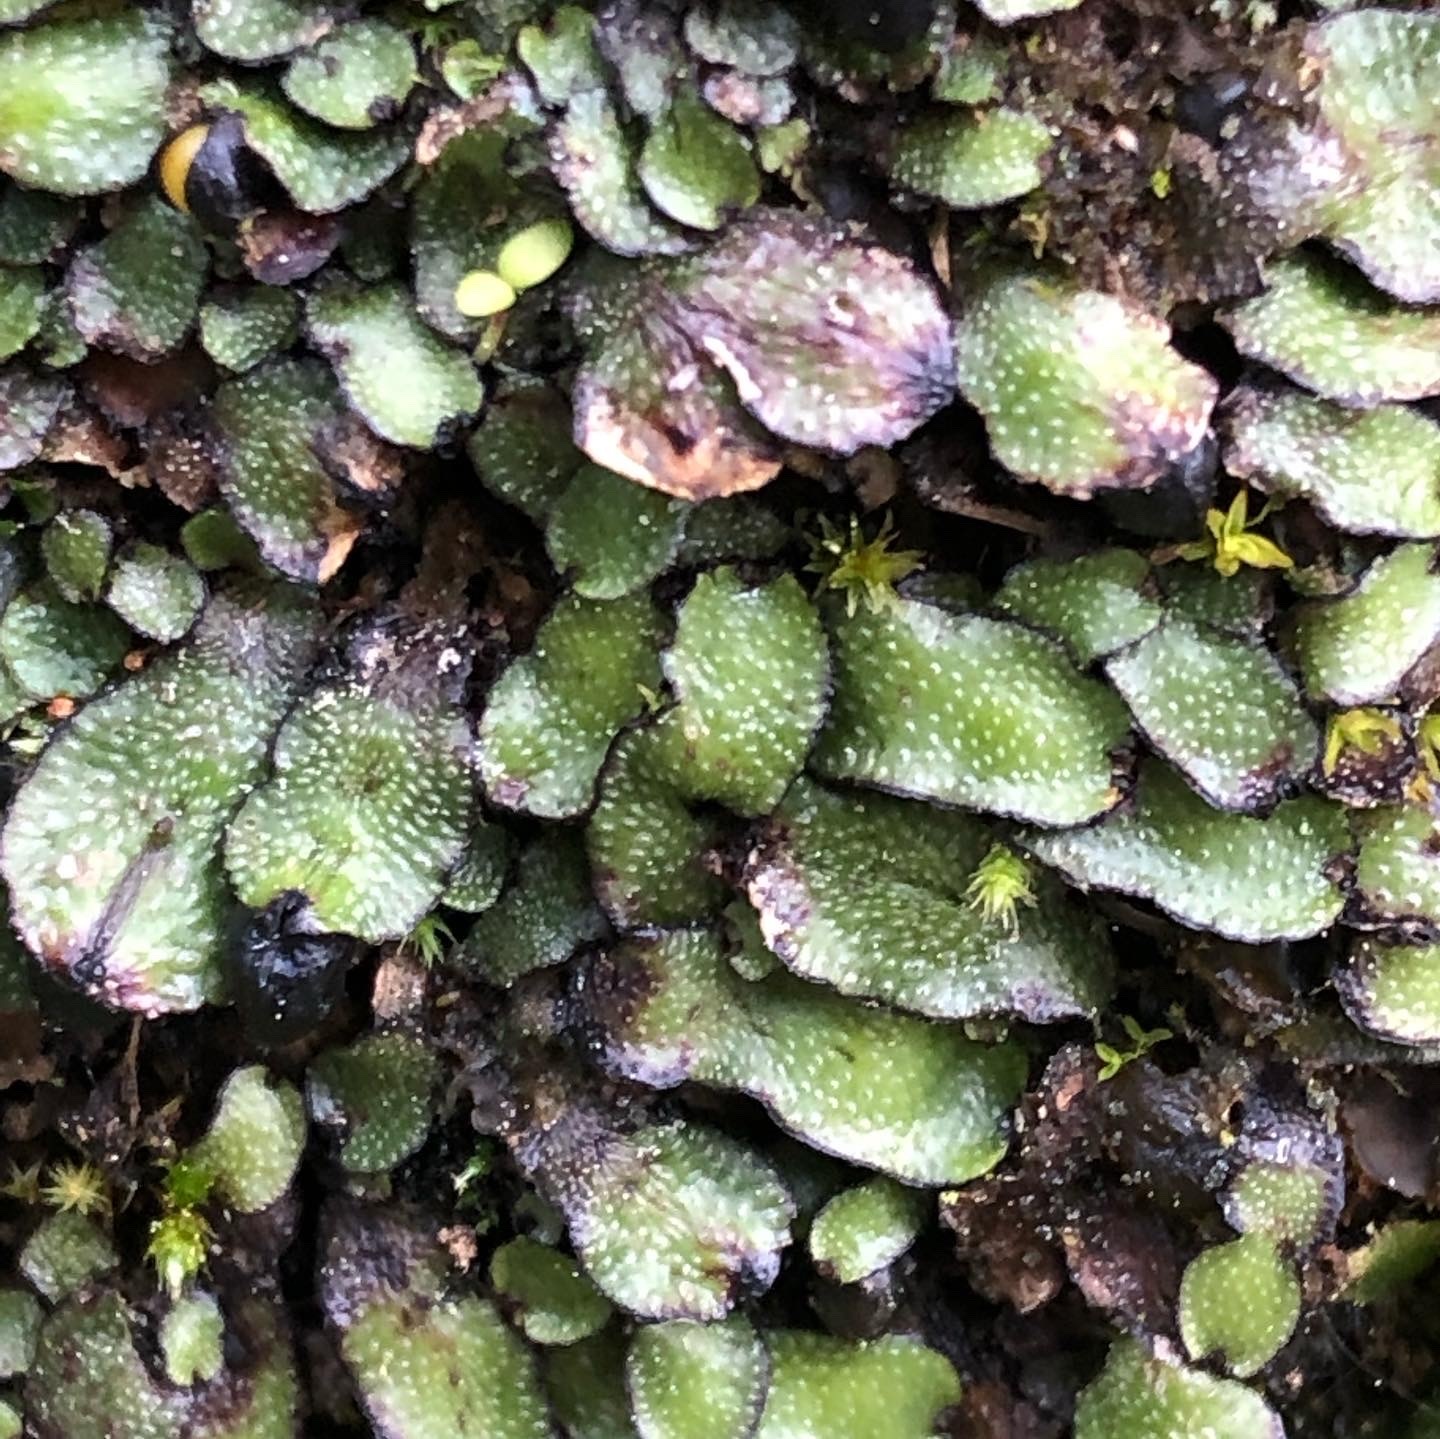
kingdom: Plantae
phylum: Marchantiophyta
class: Marchantiopsida
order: Marchantiales
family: Targioniaceae
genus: Targionia
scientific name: Targionia hypophylla
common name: Orobus-seed liverwort
